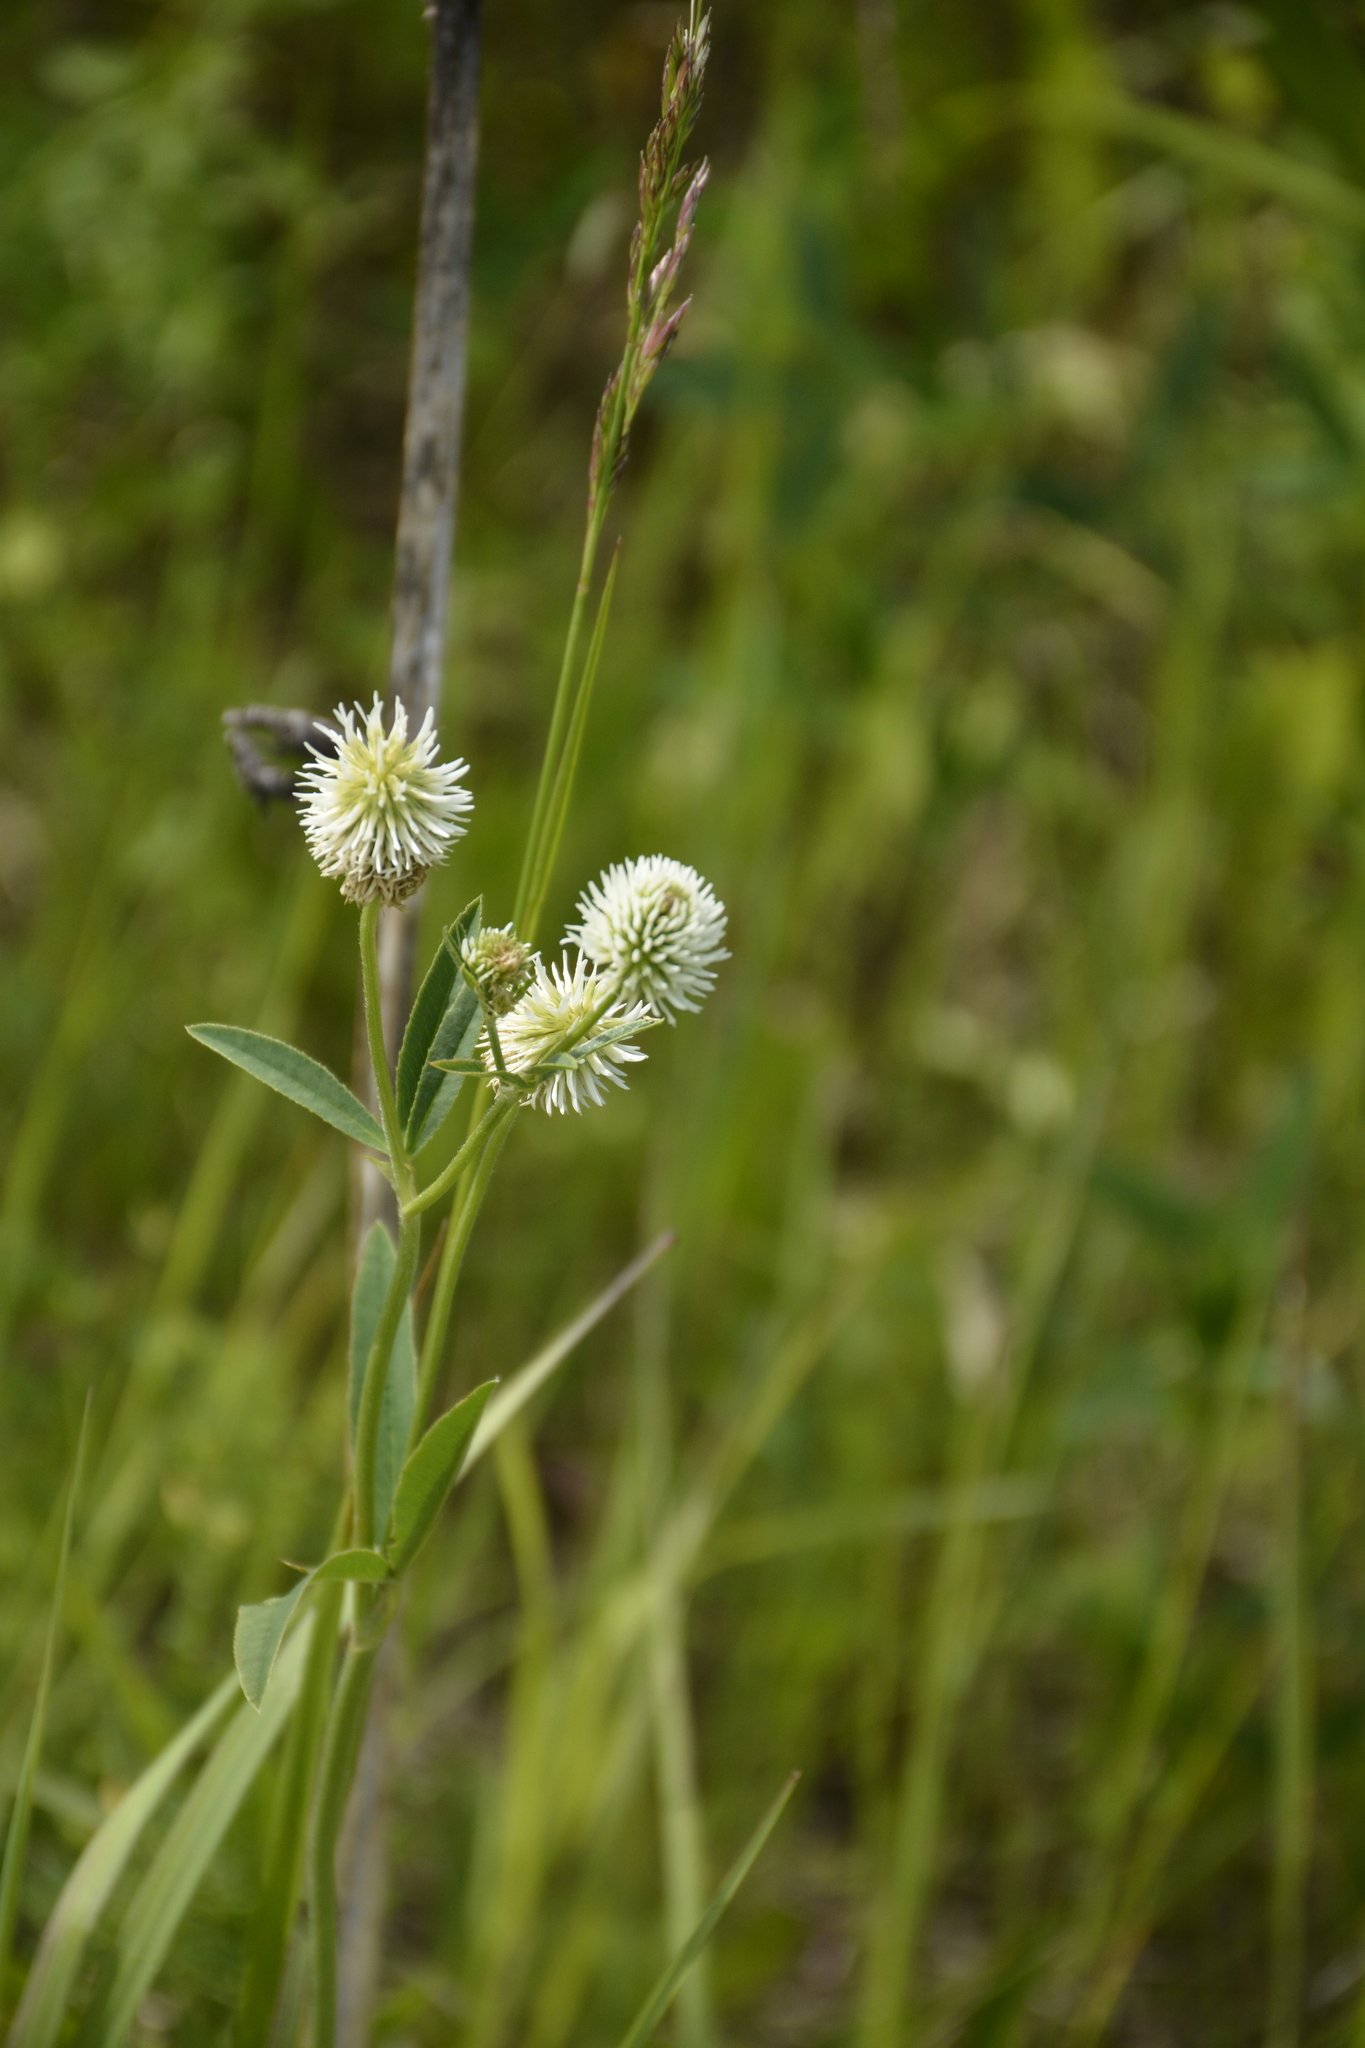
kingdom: Plantae
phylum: Tracheophyta
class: Magnoliopsida
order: Fabales
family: Fabaceae
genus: Trifolium
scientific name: Trifolium montanum
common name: Mountain clover
